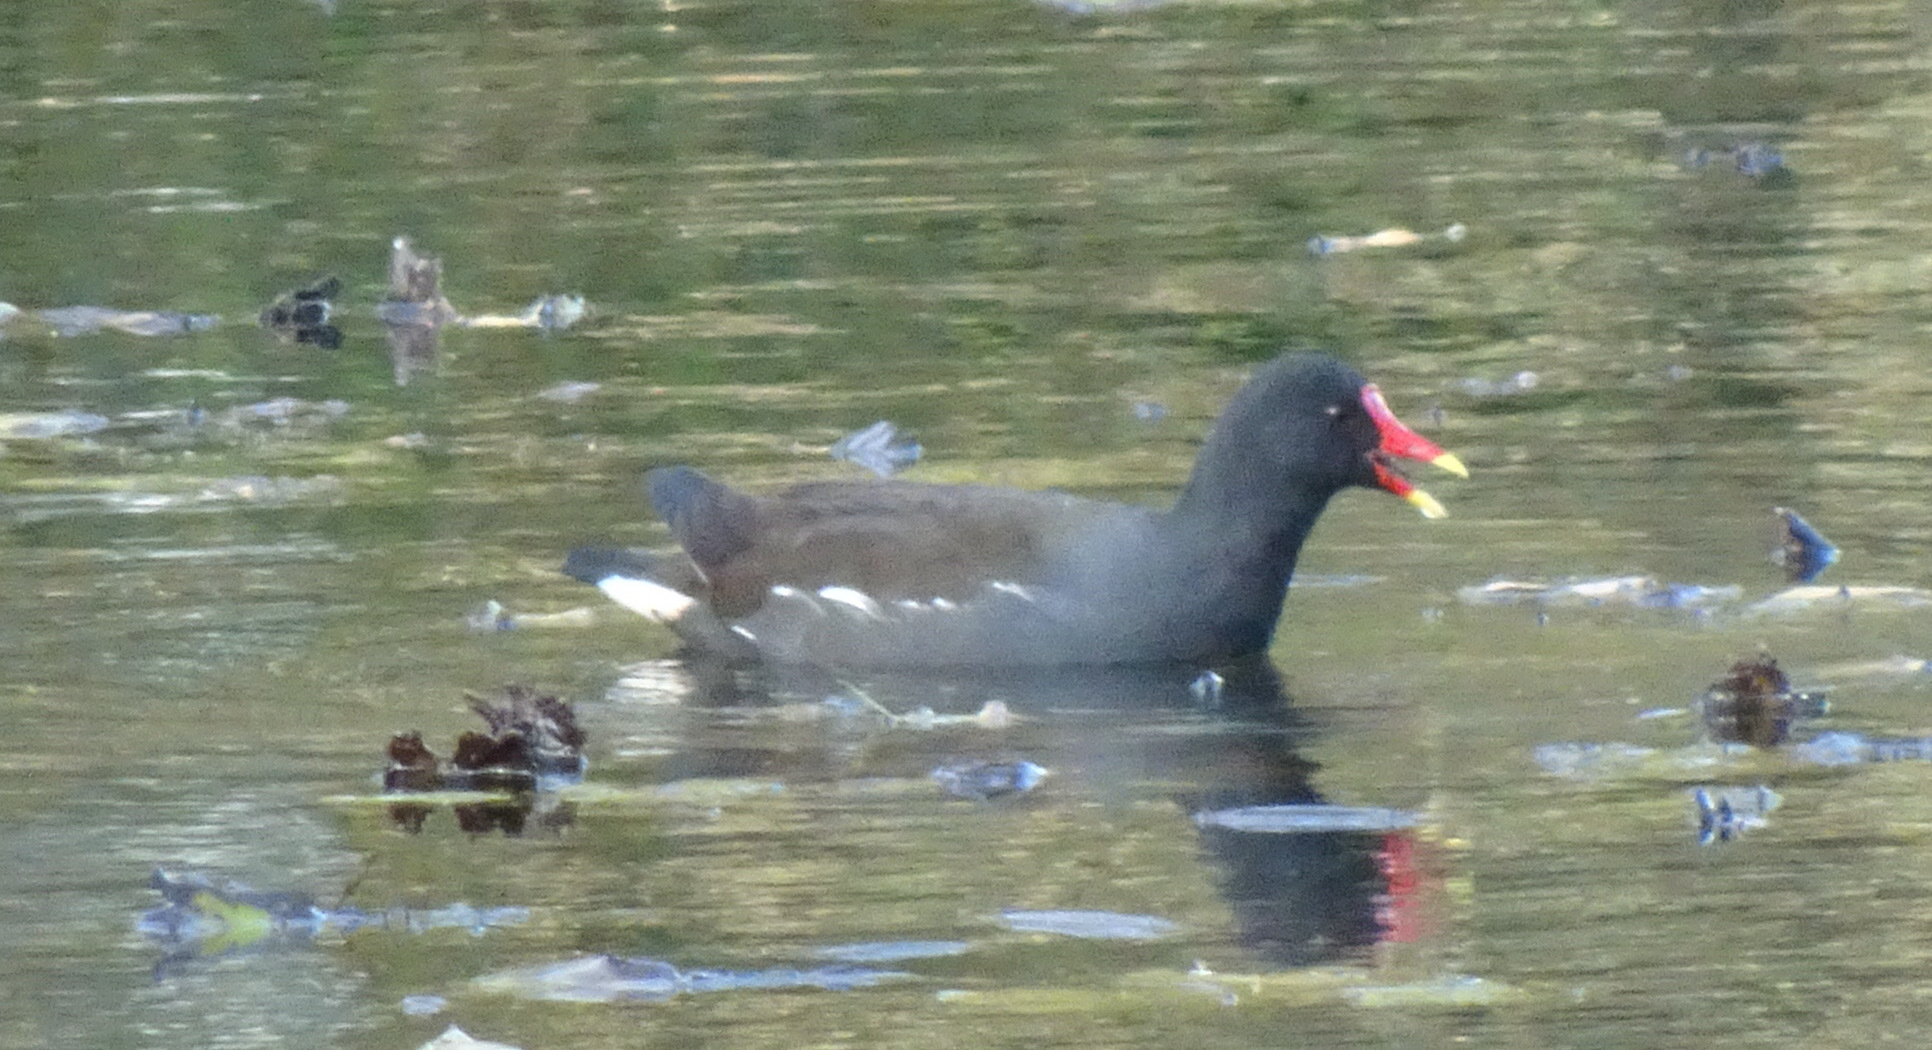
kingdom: Animalia
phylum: Chordata
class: Aves
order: Gruiformes
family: Rallidae
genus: Gallinula
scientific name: Gallinula chloropus
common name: Common moorhen
